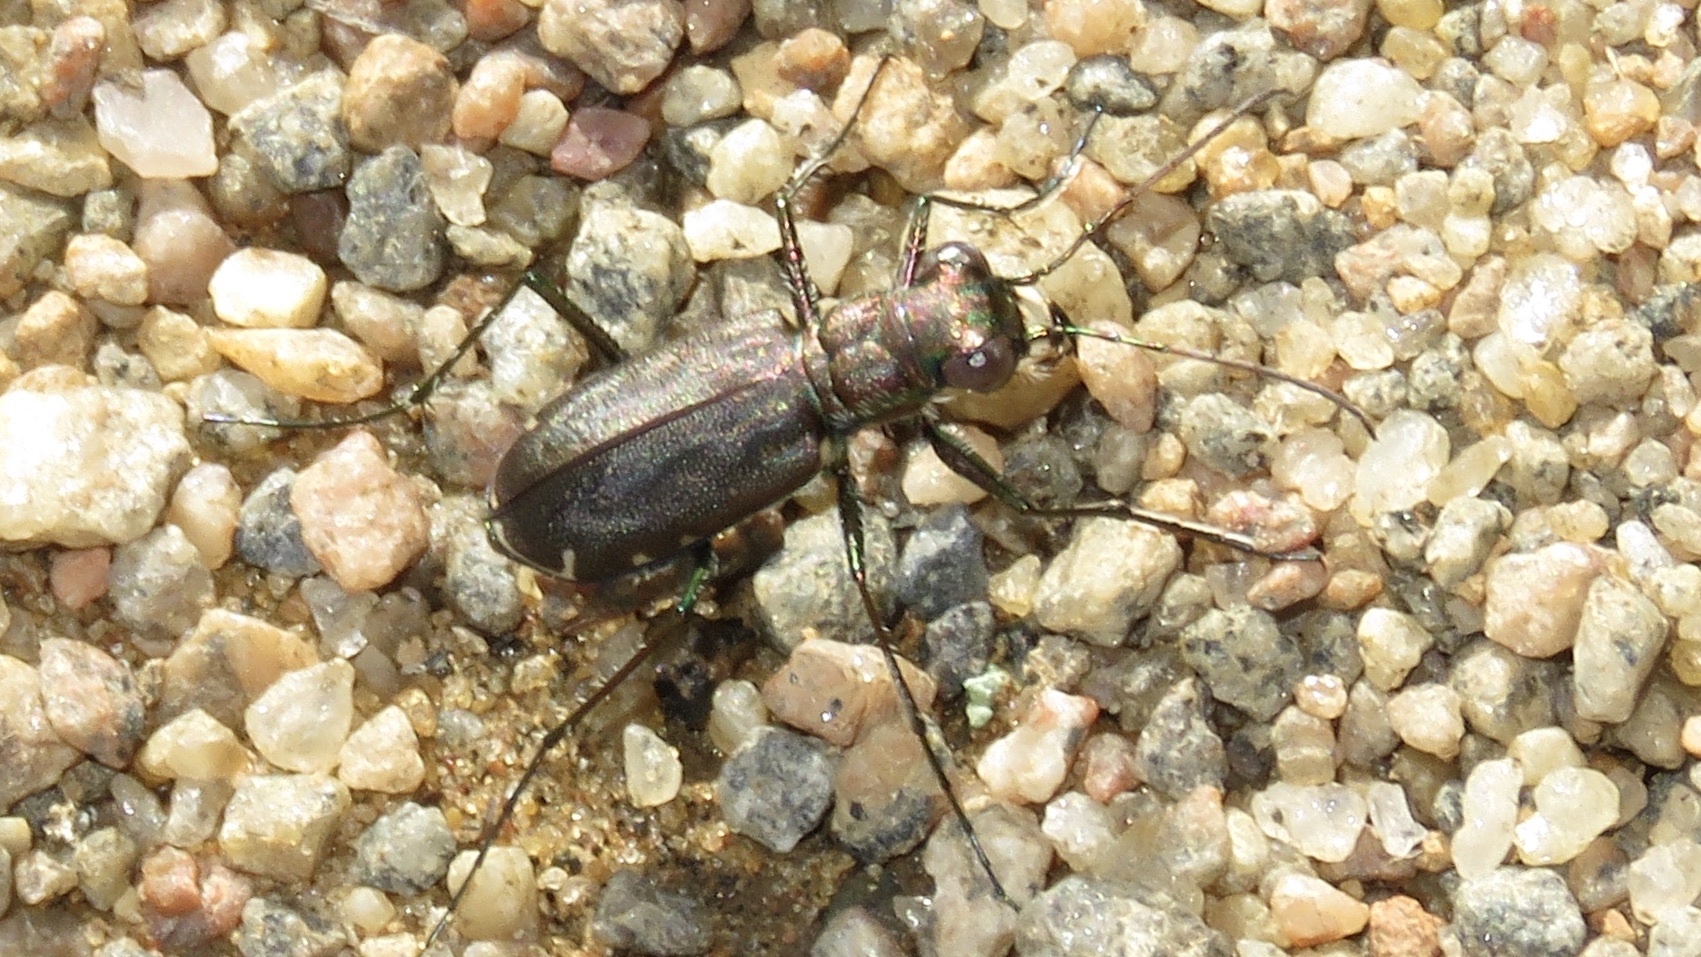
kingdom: Animalia
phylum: Arthropoda
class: Insecta
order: Coleoptera
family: Carabidae
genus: Cicindela
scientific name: Cicindela punctulata
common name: Punctured tiger beetle
